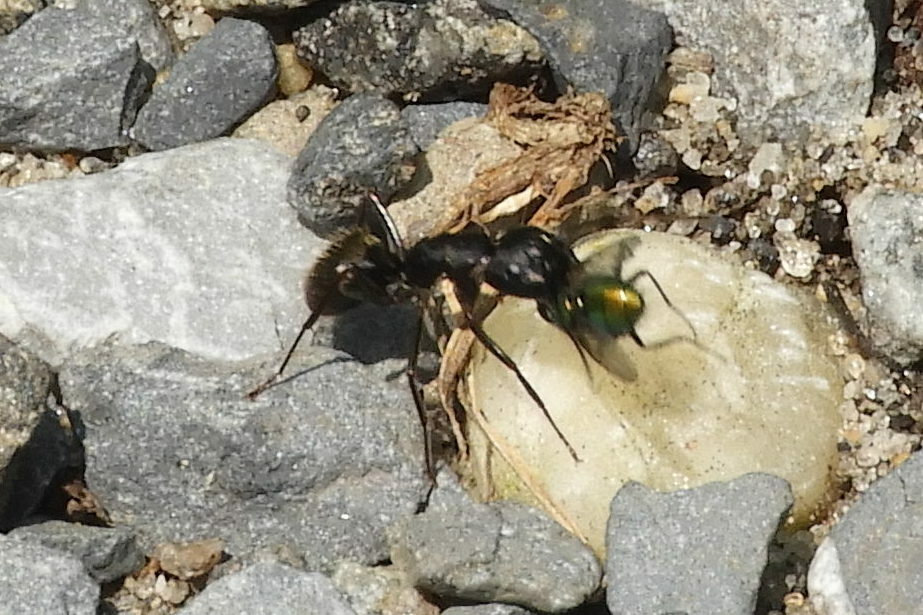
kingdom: Animalia
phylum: Arthropoda
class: Insecta
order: Hymenoptera
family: Formicidae
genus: Camponotus
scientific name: Camponotus pennsylvanicus
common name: Black carpenter ant
